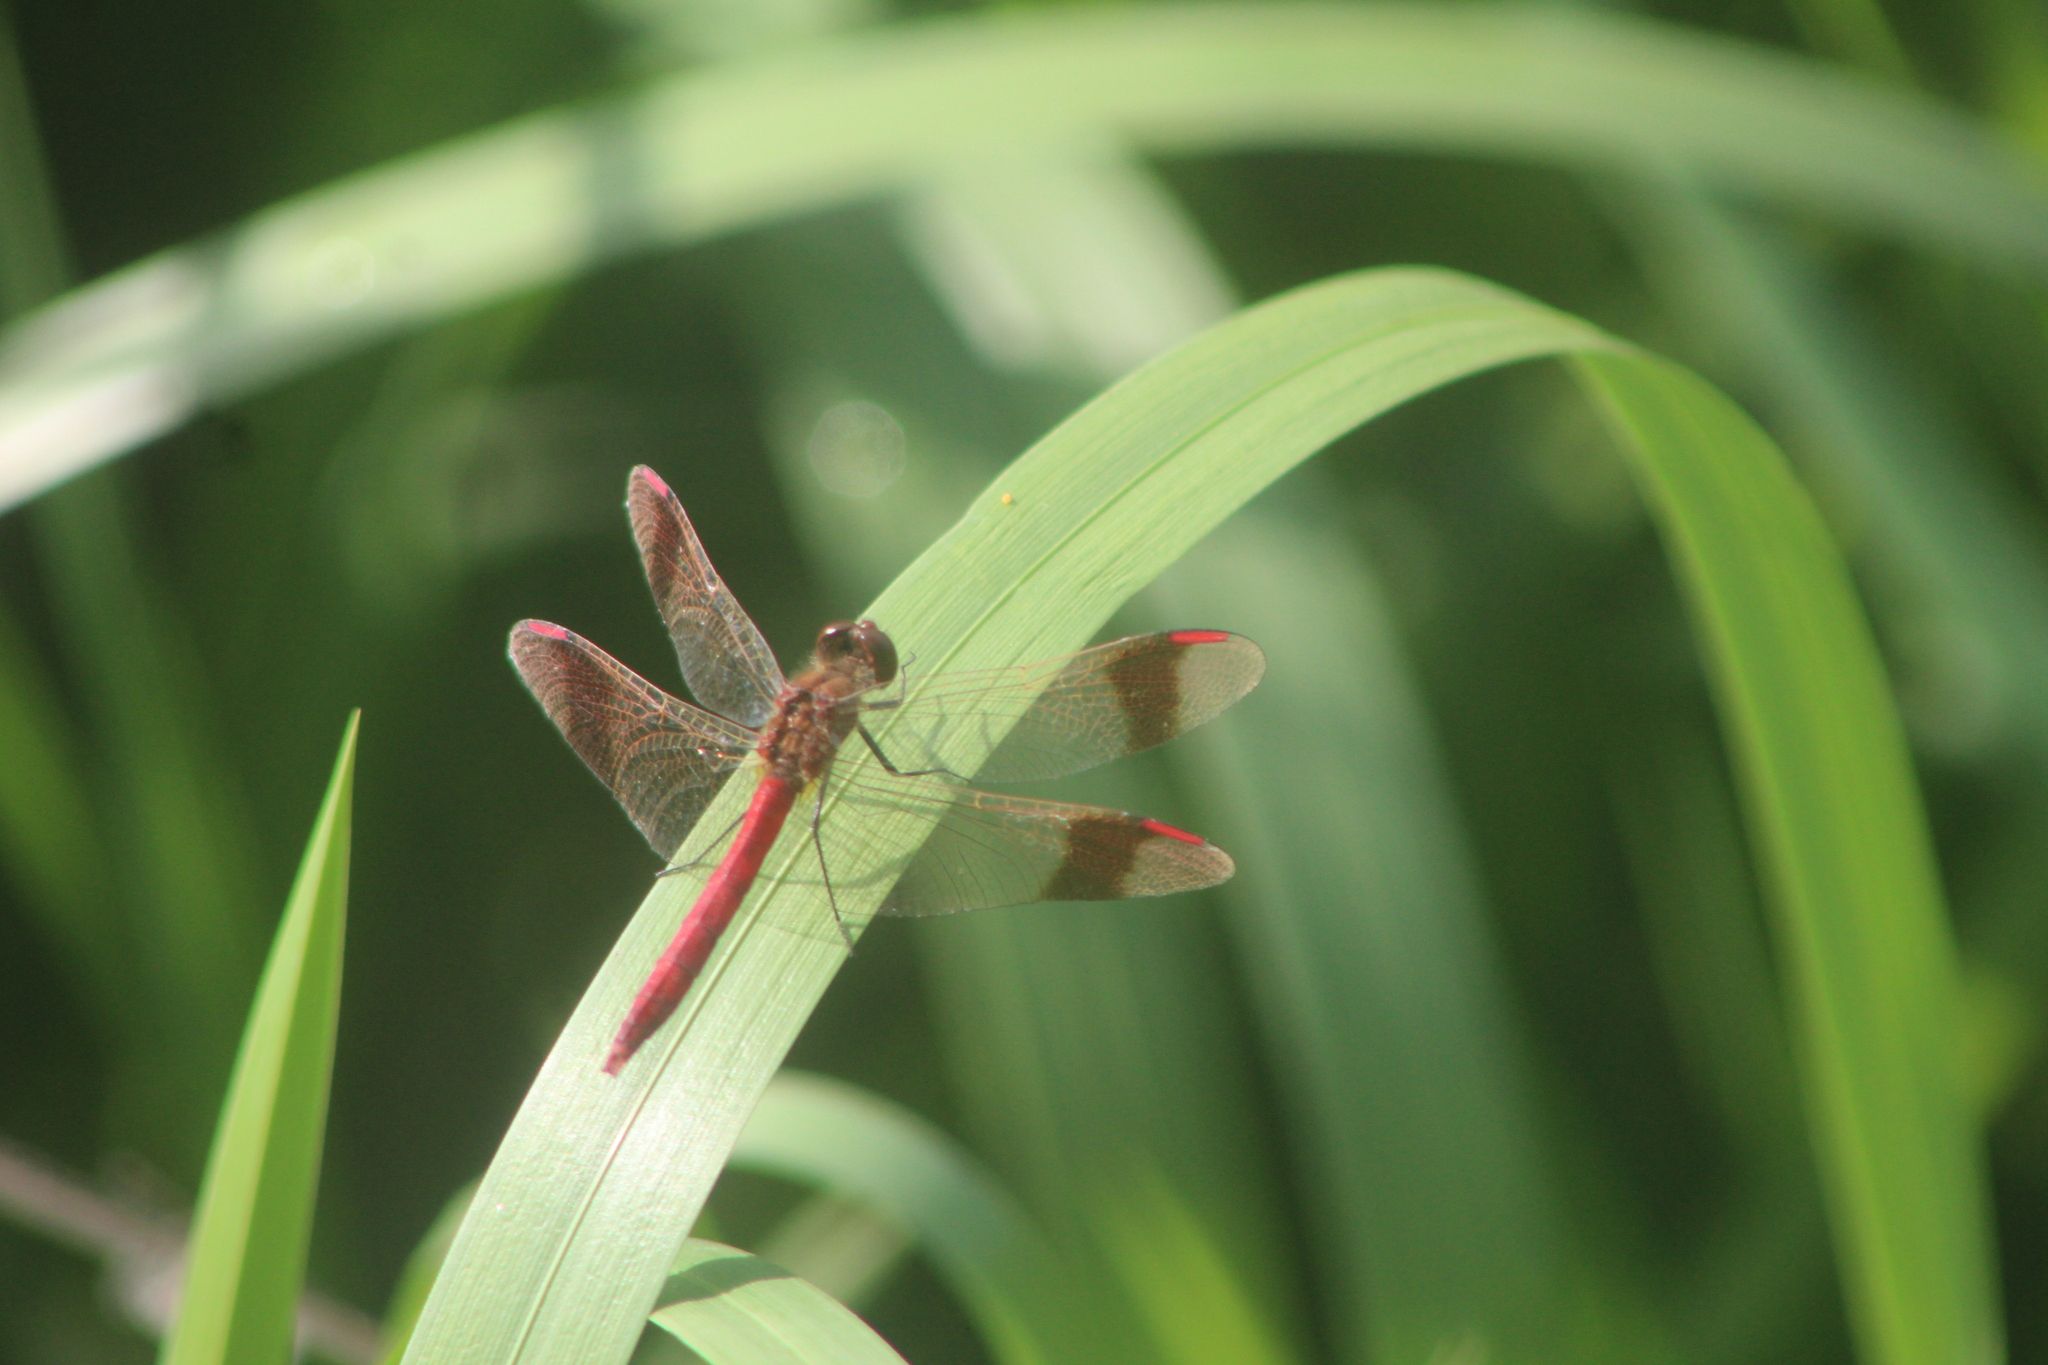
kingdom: Animalia
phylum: Arthropoda
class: Insecta
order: Odonata
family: Libellulidae
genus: Sympetrum
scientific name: Sympetrum pedemontanum
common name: Banded darter
